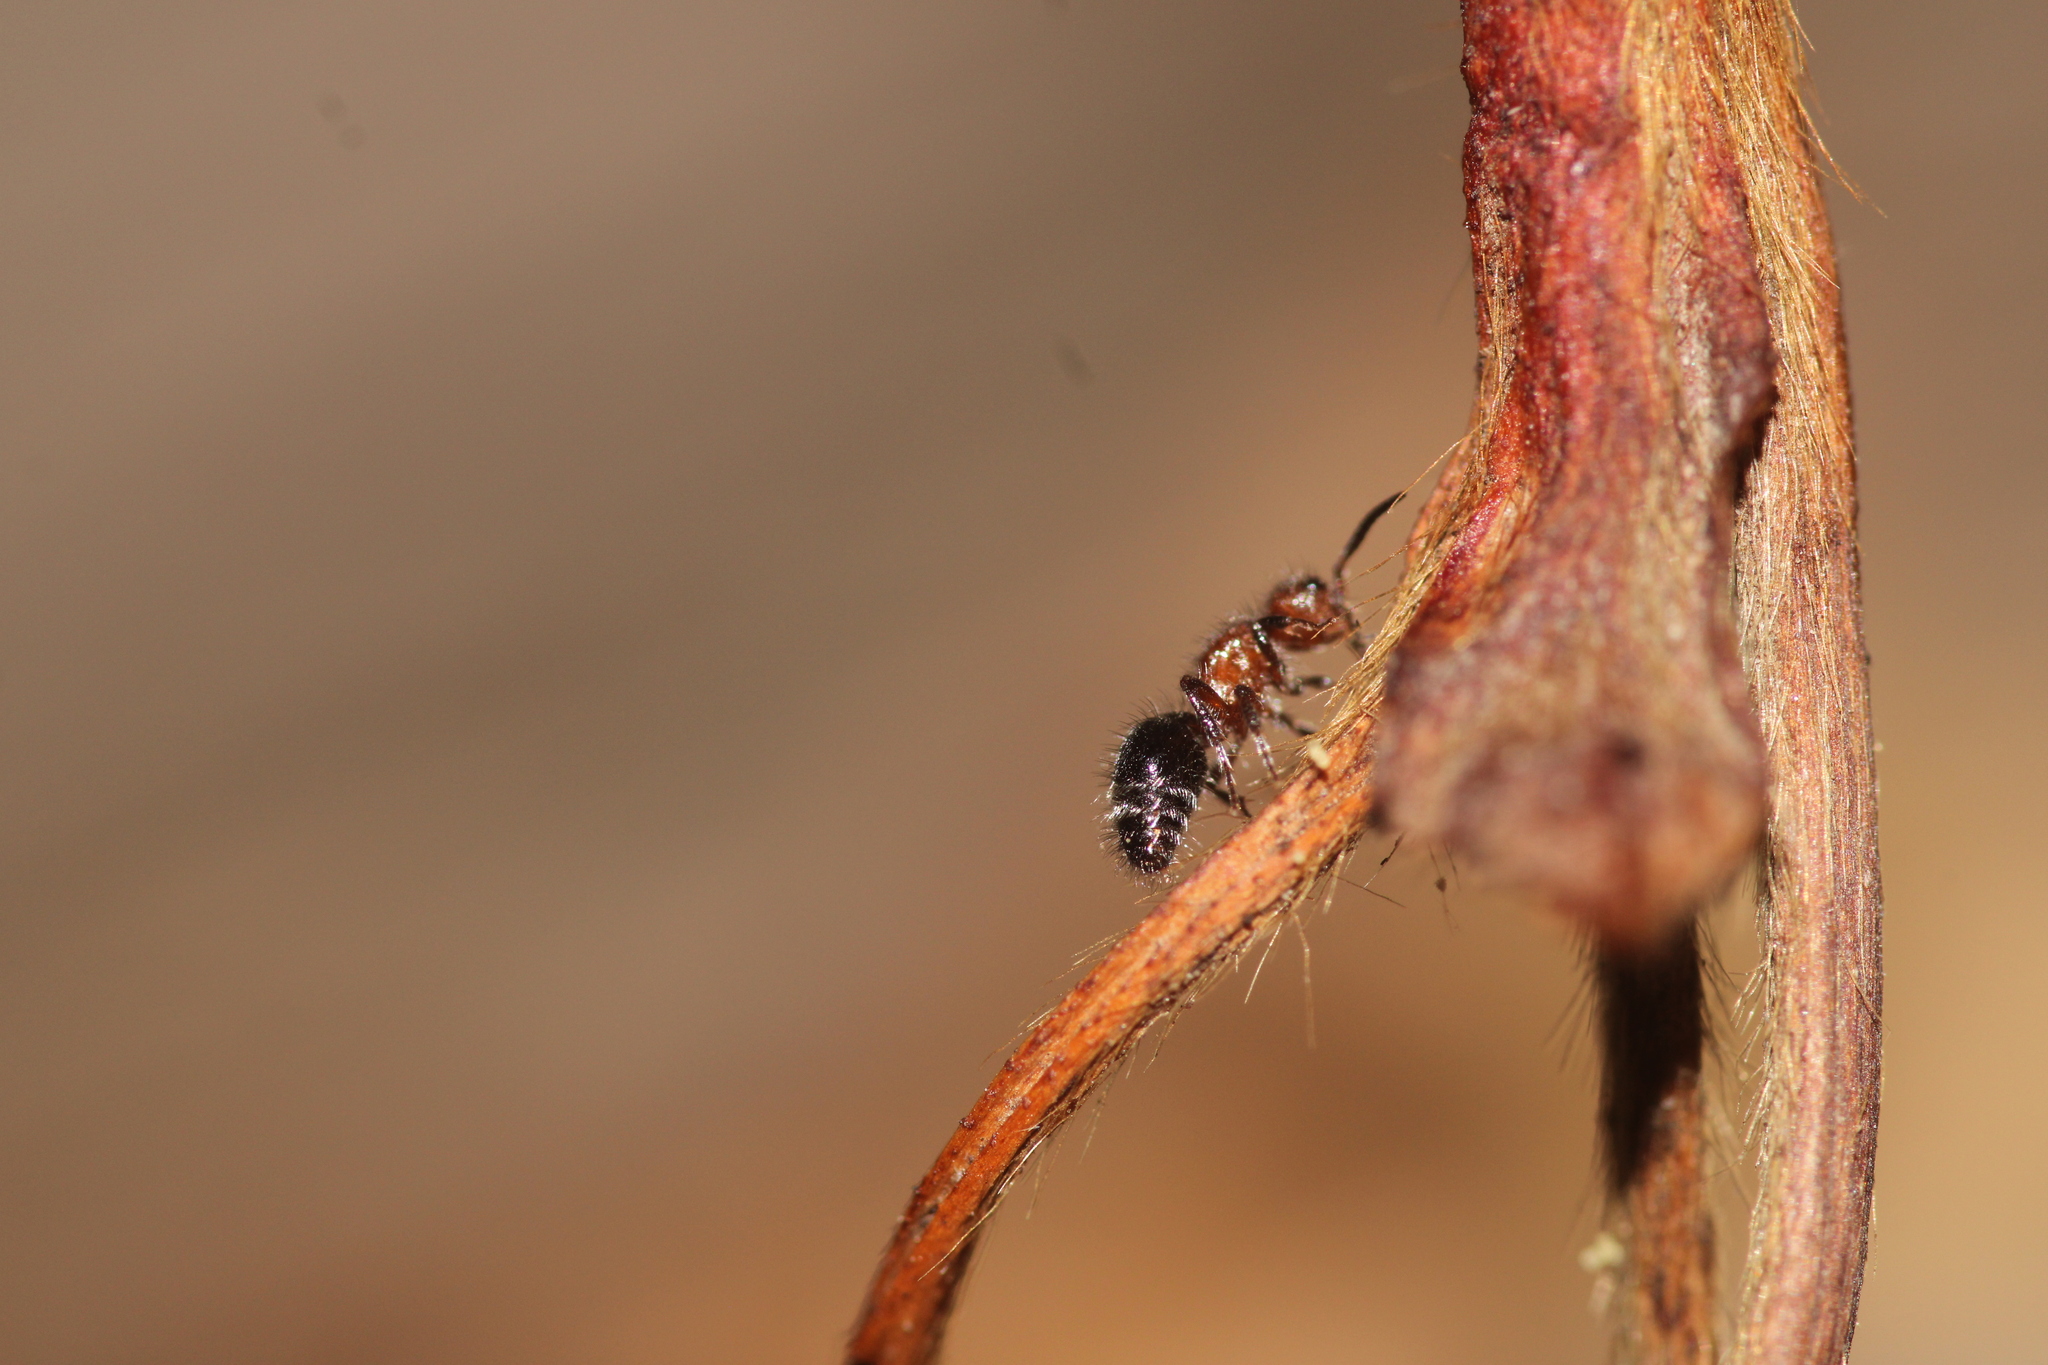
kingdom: Animalia
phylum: Arthropoda
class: Insecta
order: Hymenoptera
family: Mutillidae
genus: Cystomutilla
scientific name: Cystomutilla ruficeps
